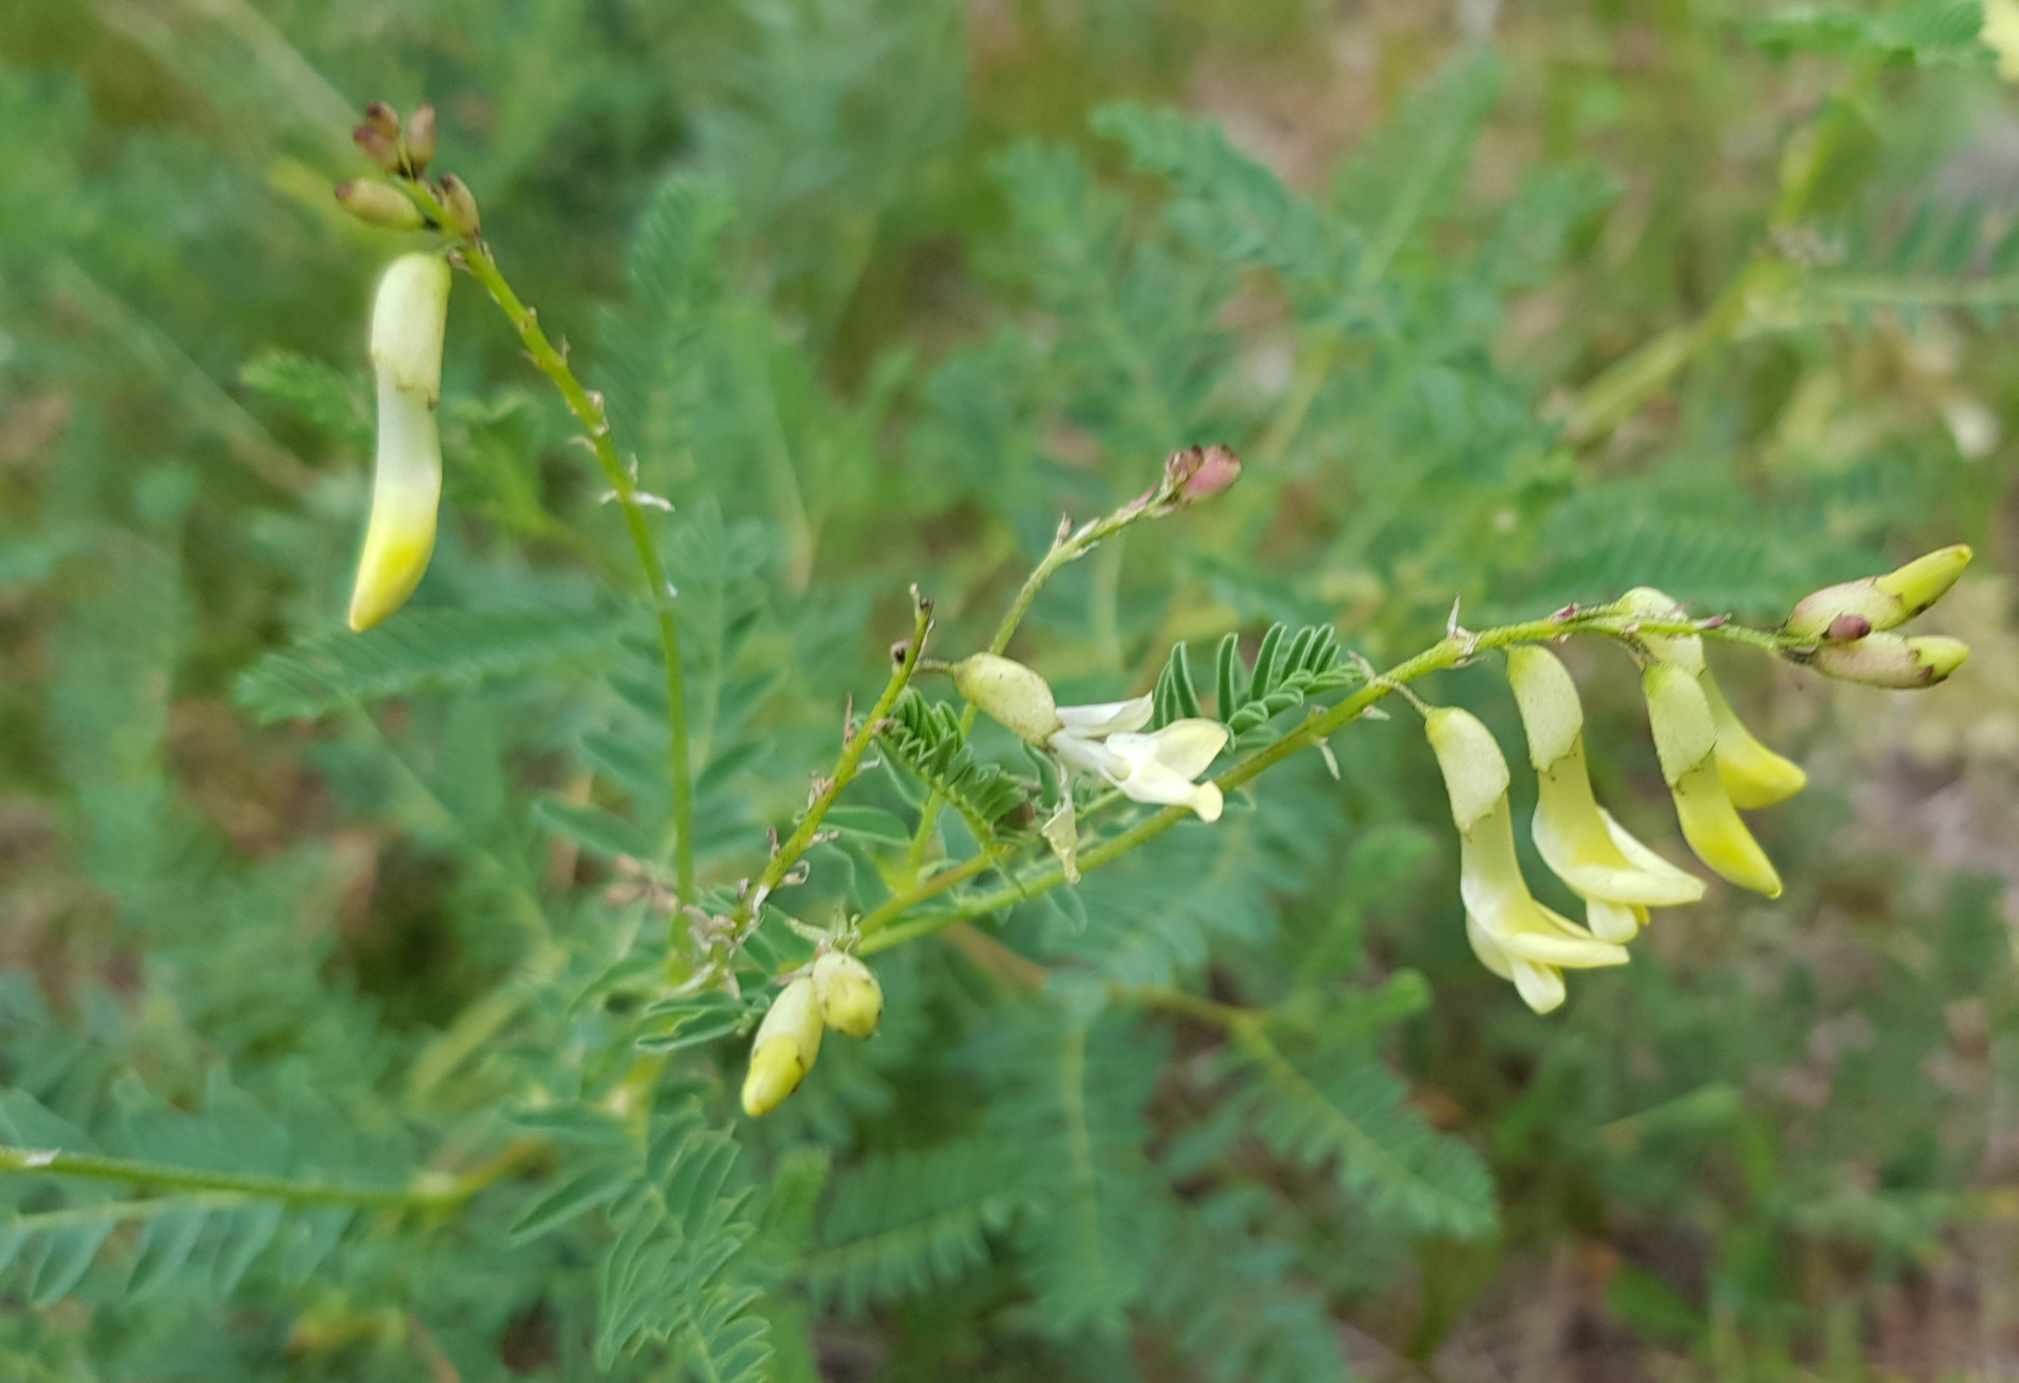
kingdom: Plantae
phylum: Tracheophyta
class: Magnoliopsida
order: Fabales
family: Fabaceae
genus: Astragalus
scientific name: Astragalus mongolicus
